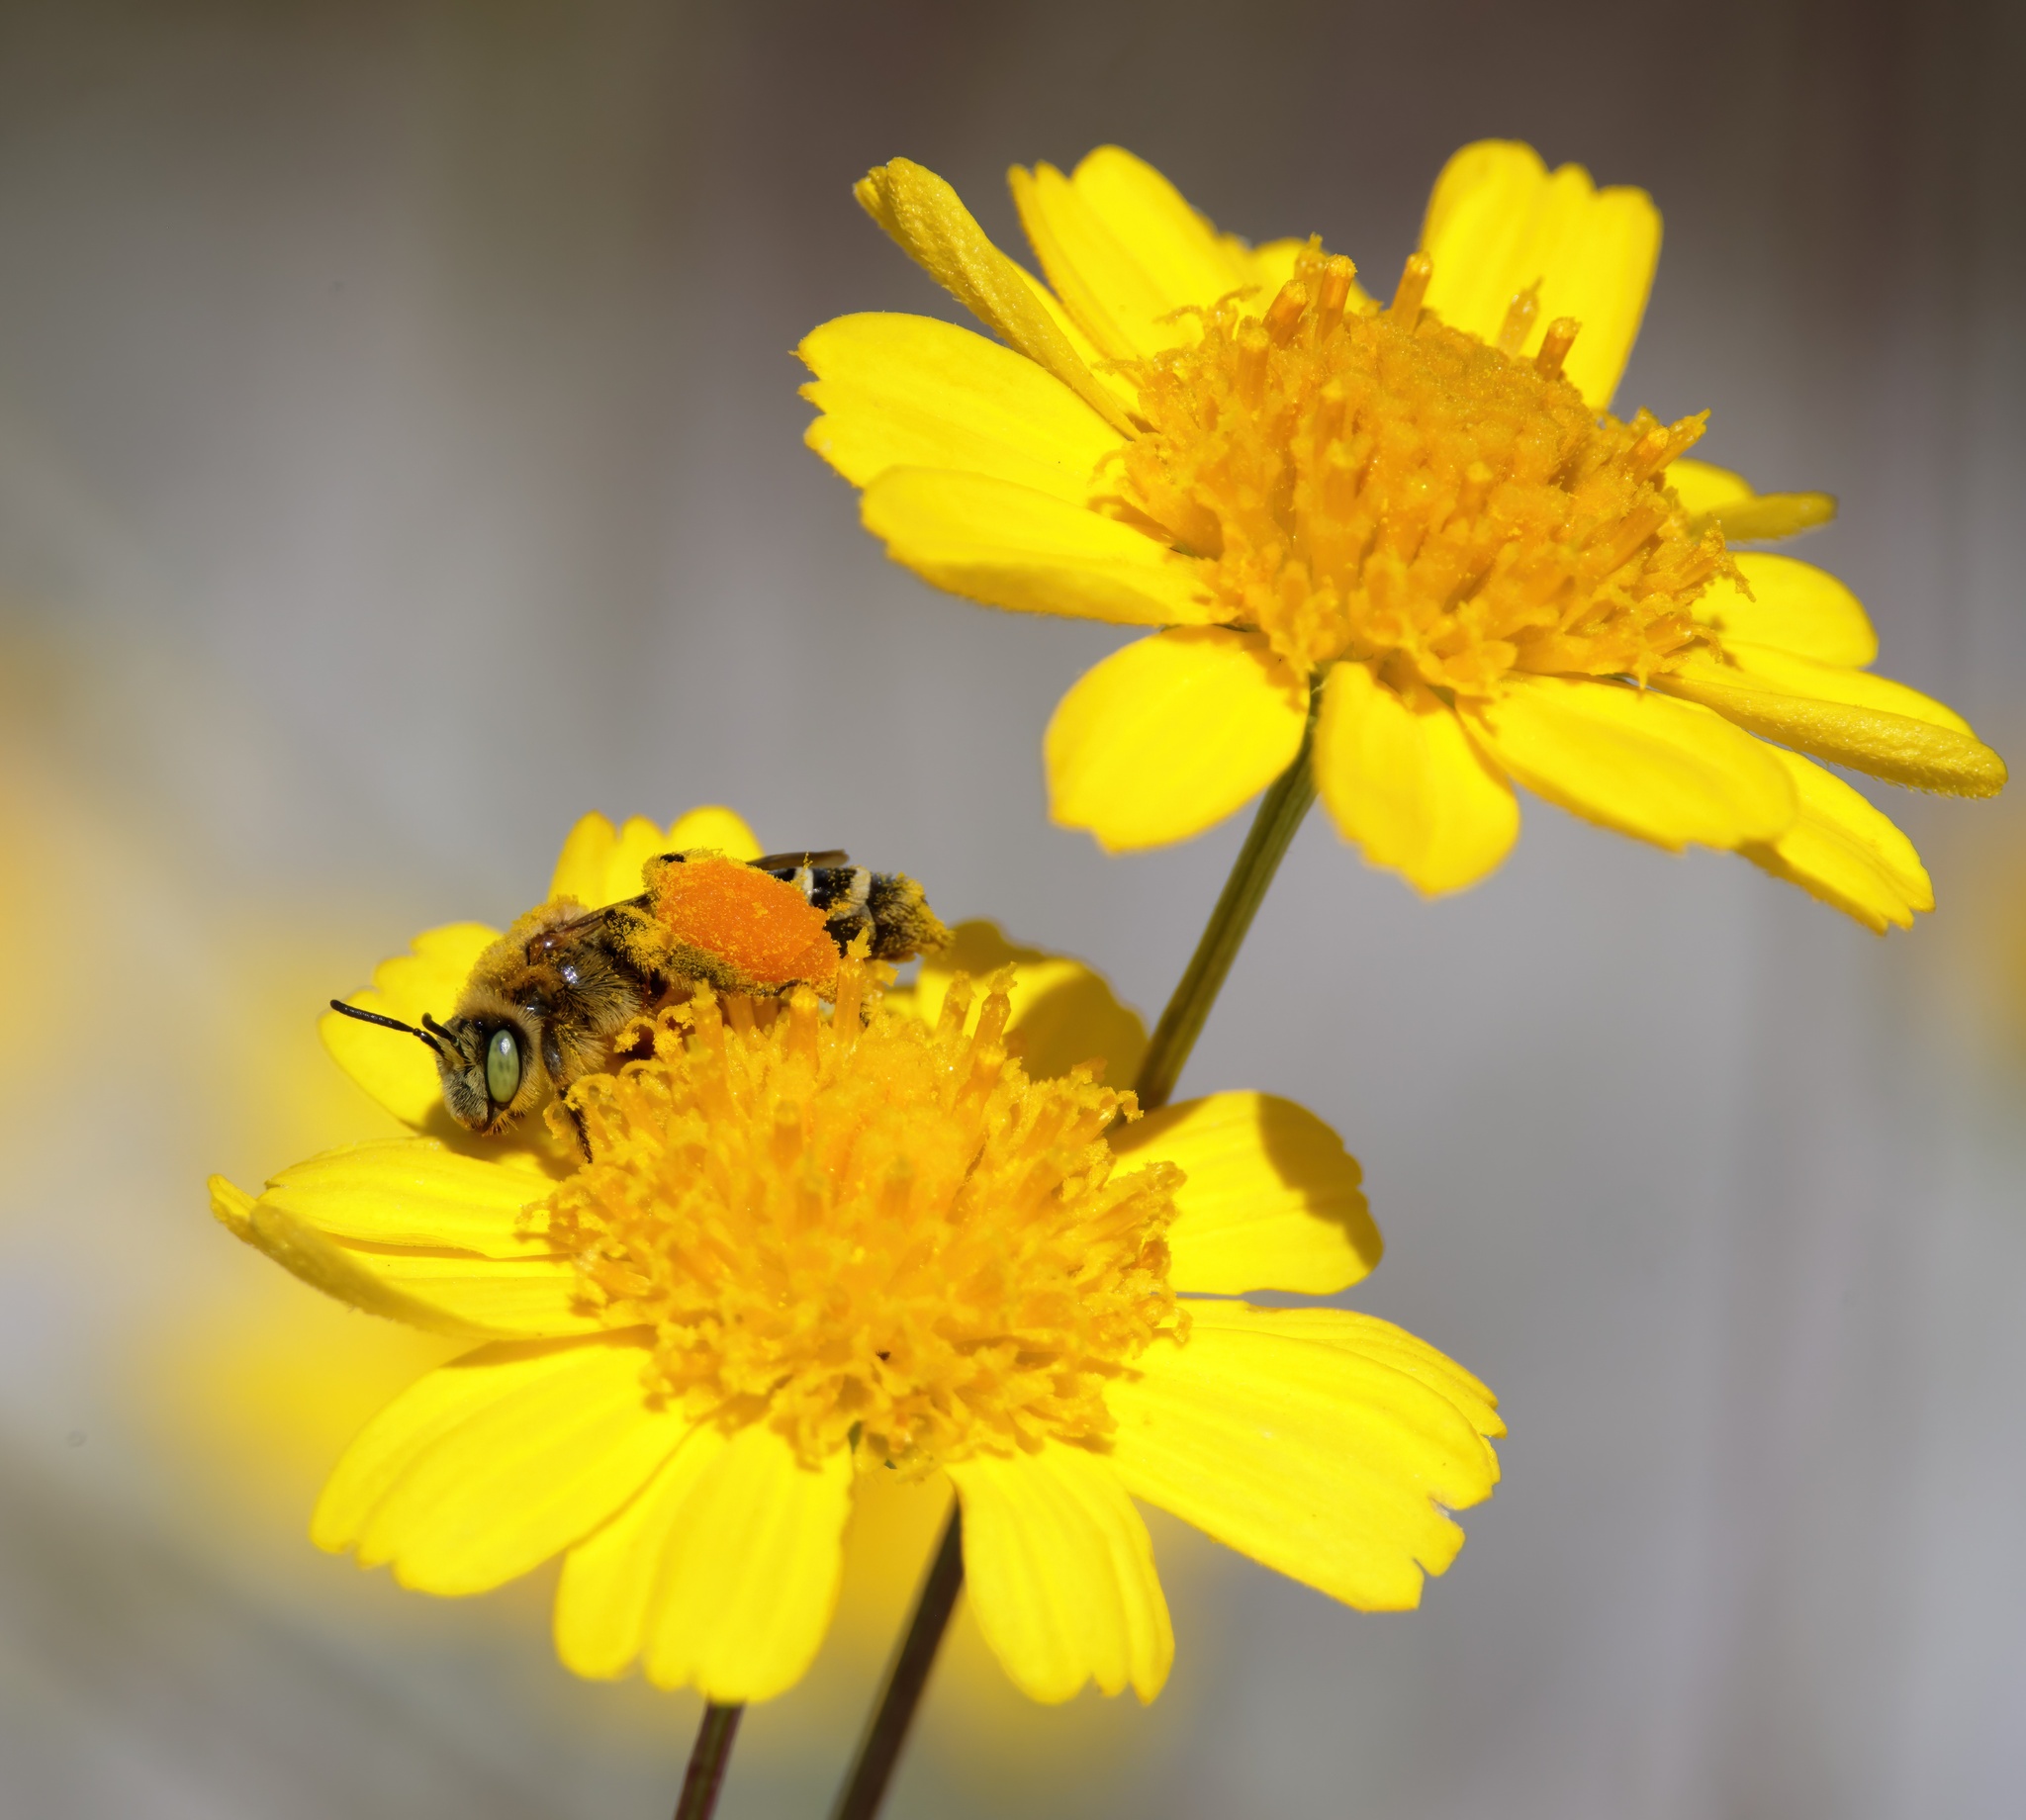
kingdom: Animalia
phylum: Arthropoda
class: Insecta
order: Hymenoptera
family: Melittidae
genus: Hesperapis
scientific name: Hesperapis oraria
